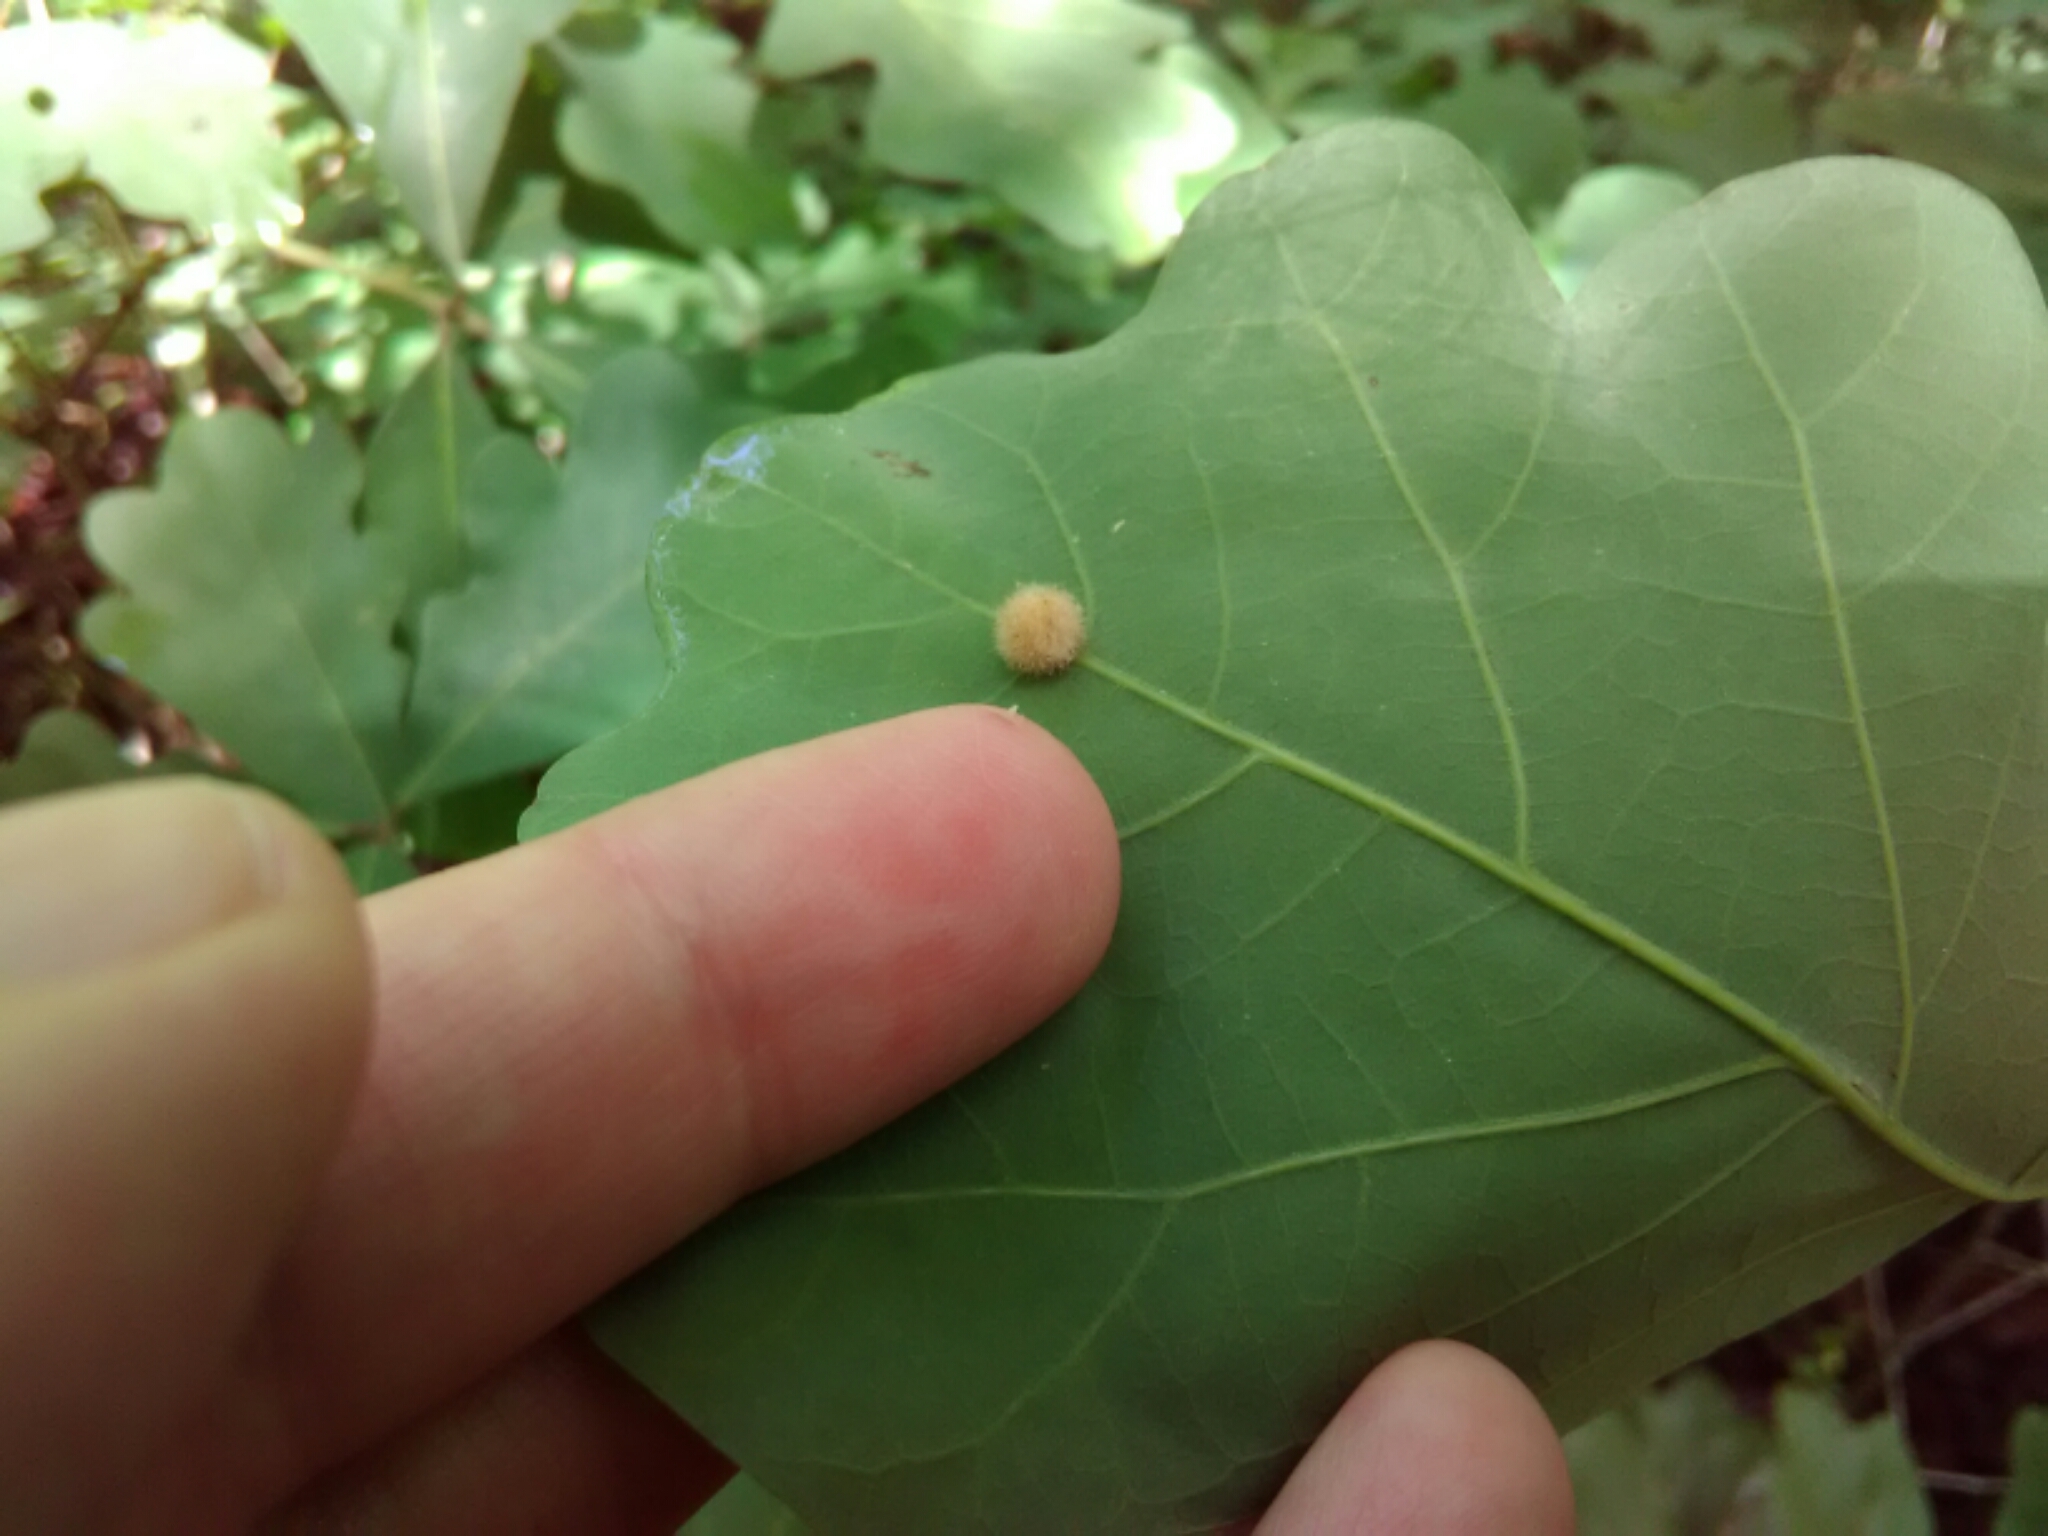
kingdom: Animalia
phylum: Arthropoda
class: Insecta
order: Hymenoptera
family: Cynipidae
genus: Philonix
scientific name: Philonix fulvicollis
